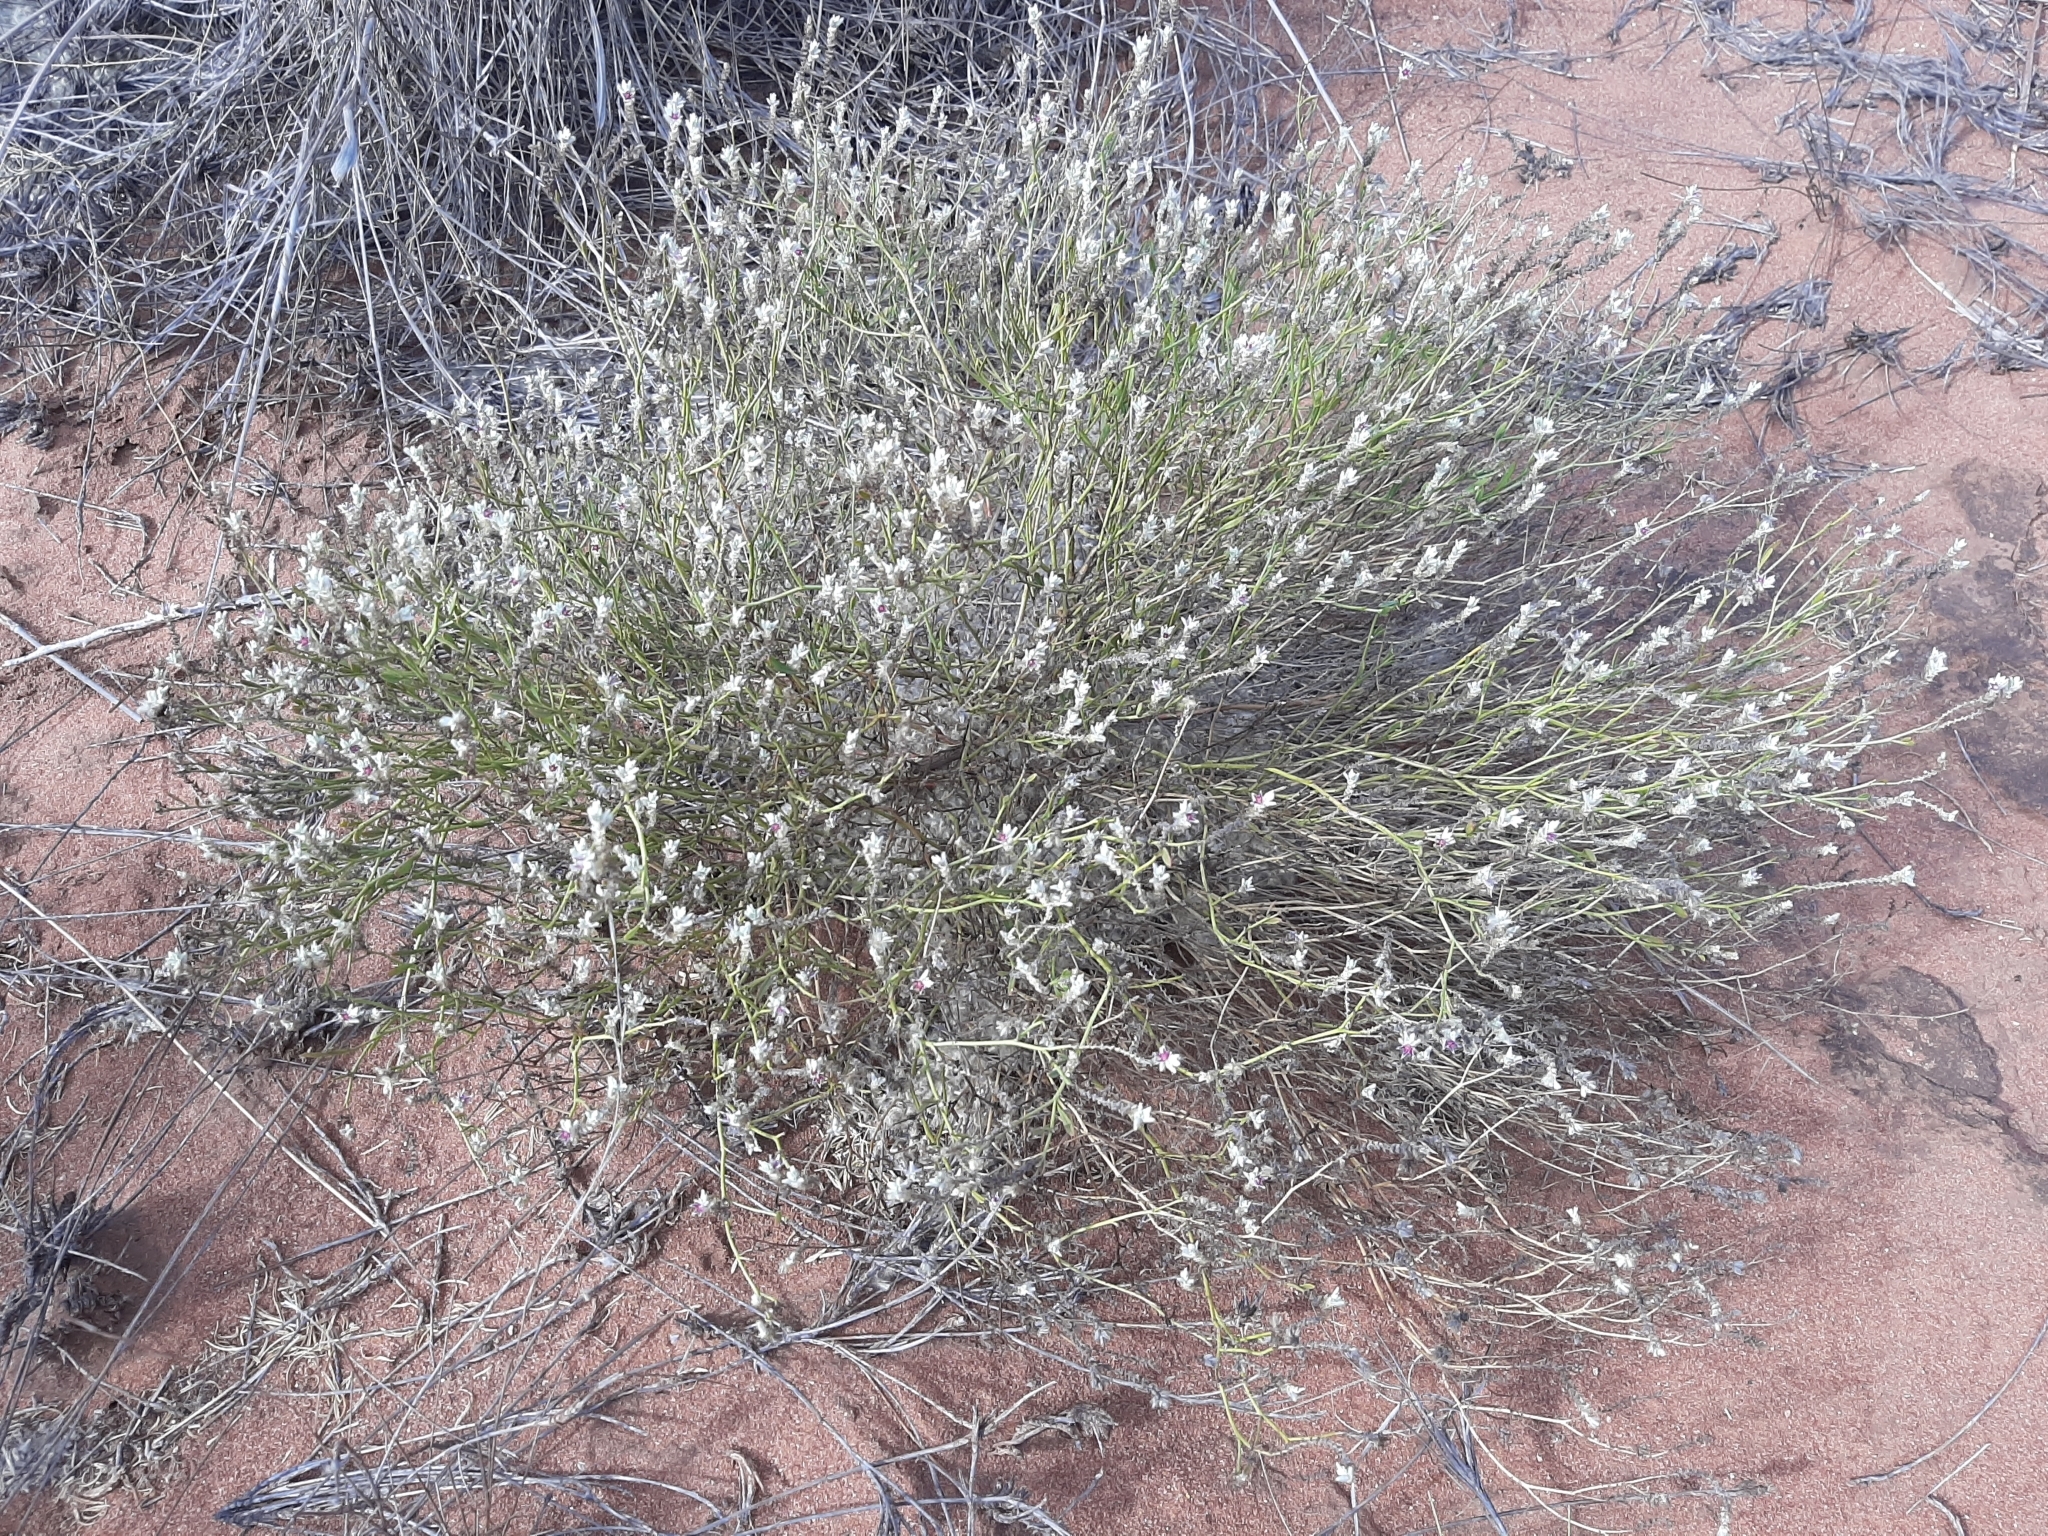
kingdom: Plantae
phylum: Tracheophyta
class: Magnoliopsida
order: Caryophyllales
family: Amaranthaceae
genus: Ptilotus
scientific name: Ptilotus arthrolasius
